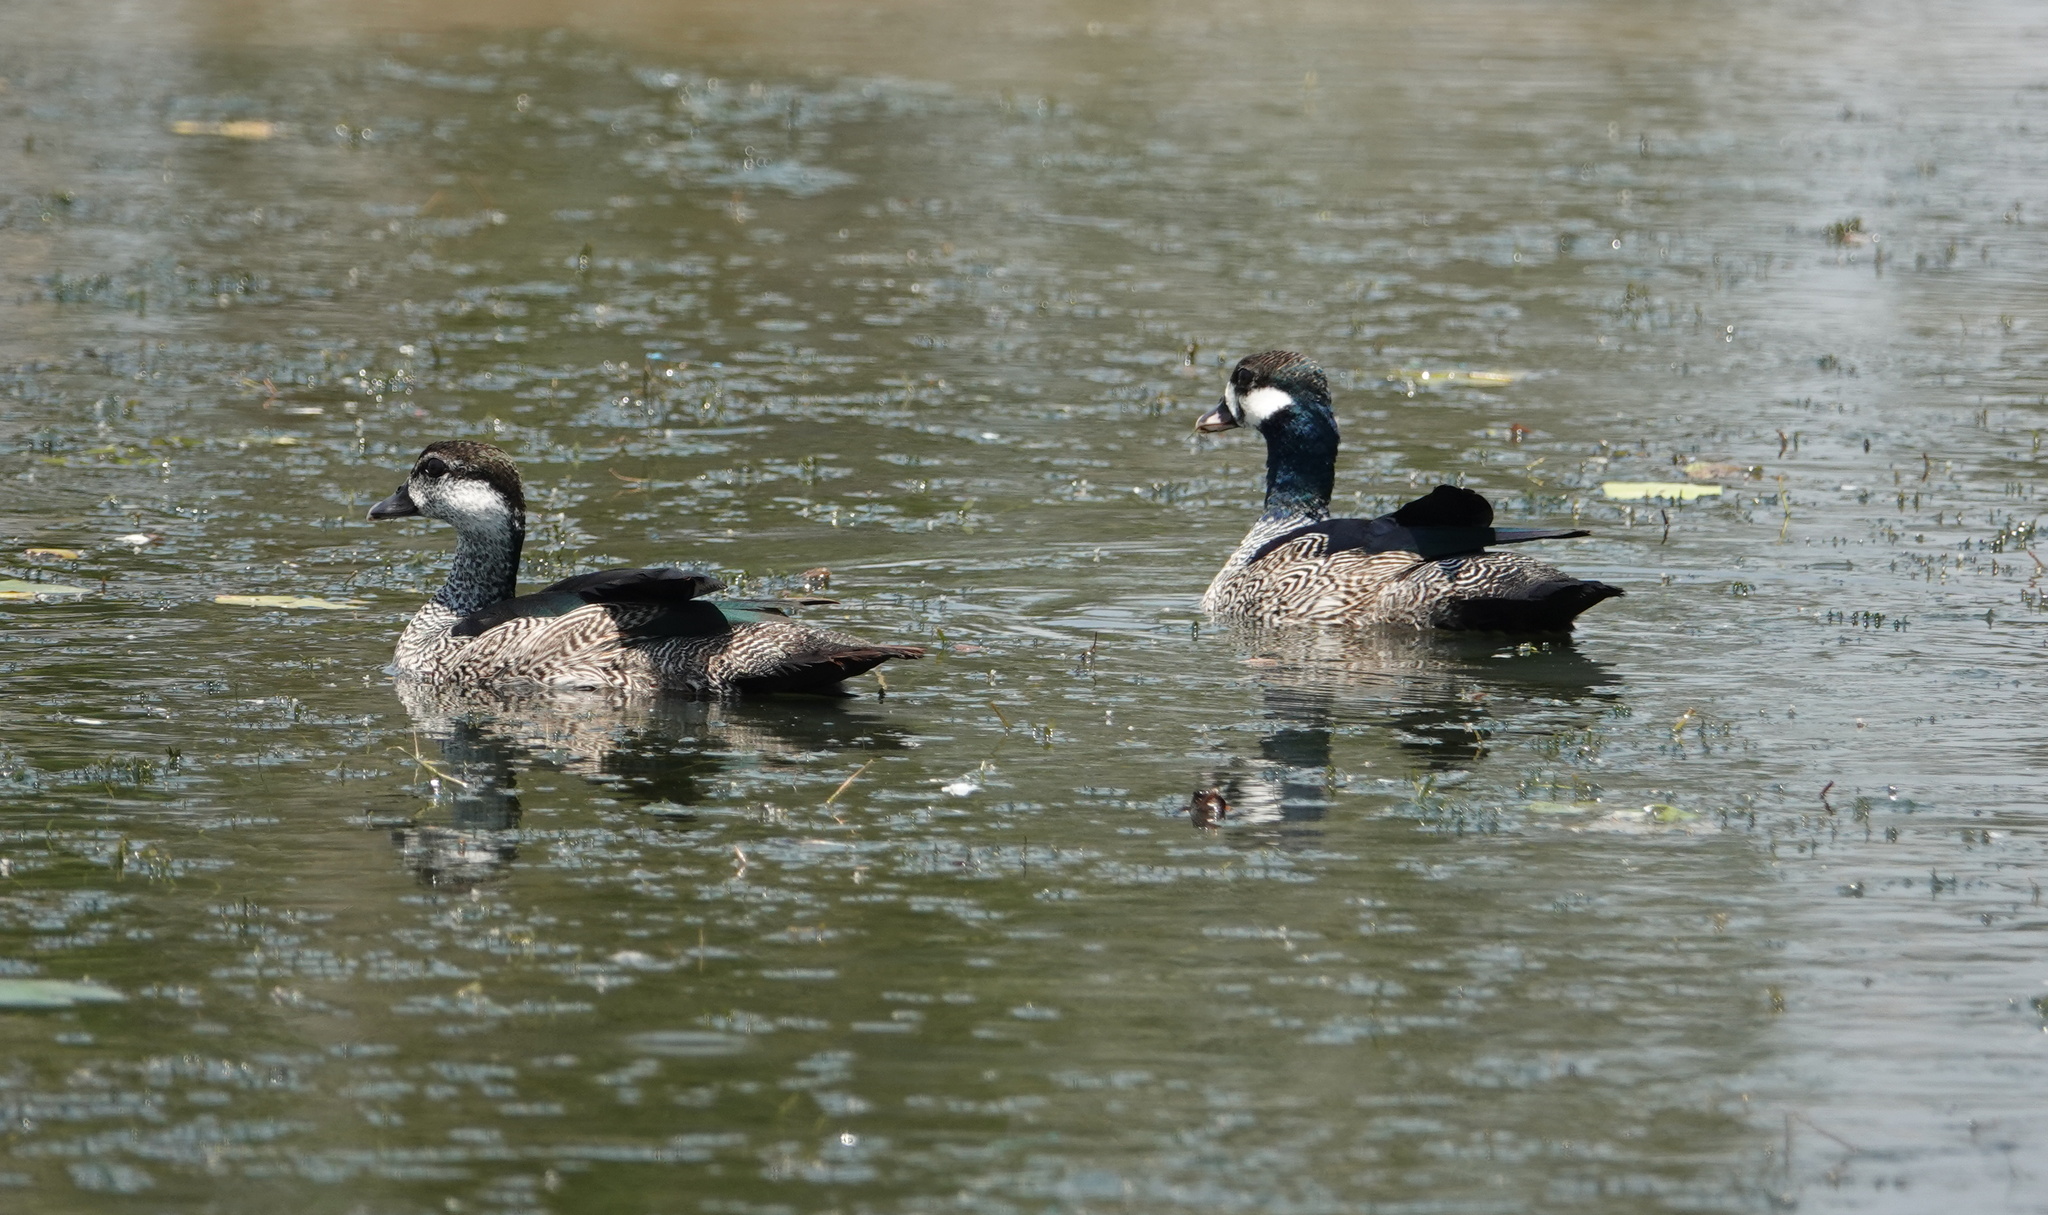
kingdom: Animalia
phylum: Chordata
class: Aves
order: Anseriformes
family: Anatidae
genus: Nettapus
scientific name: Nettapus pulchellus
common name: Green pygmy-goose
